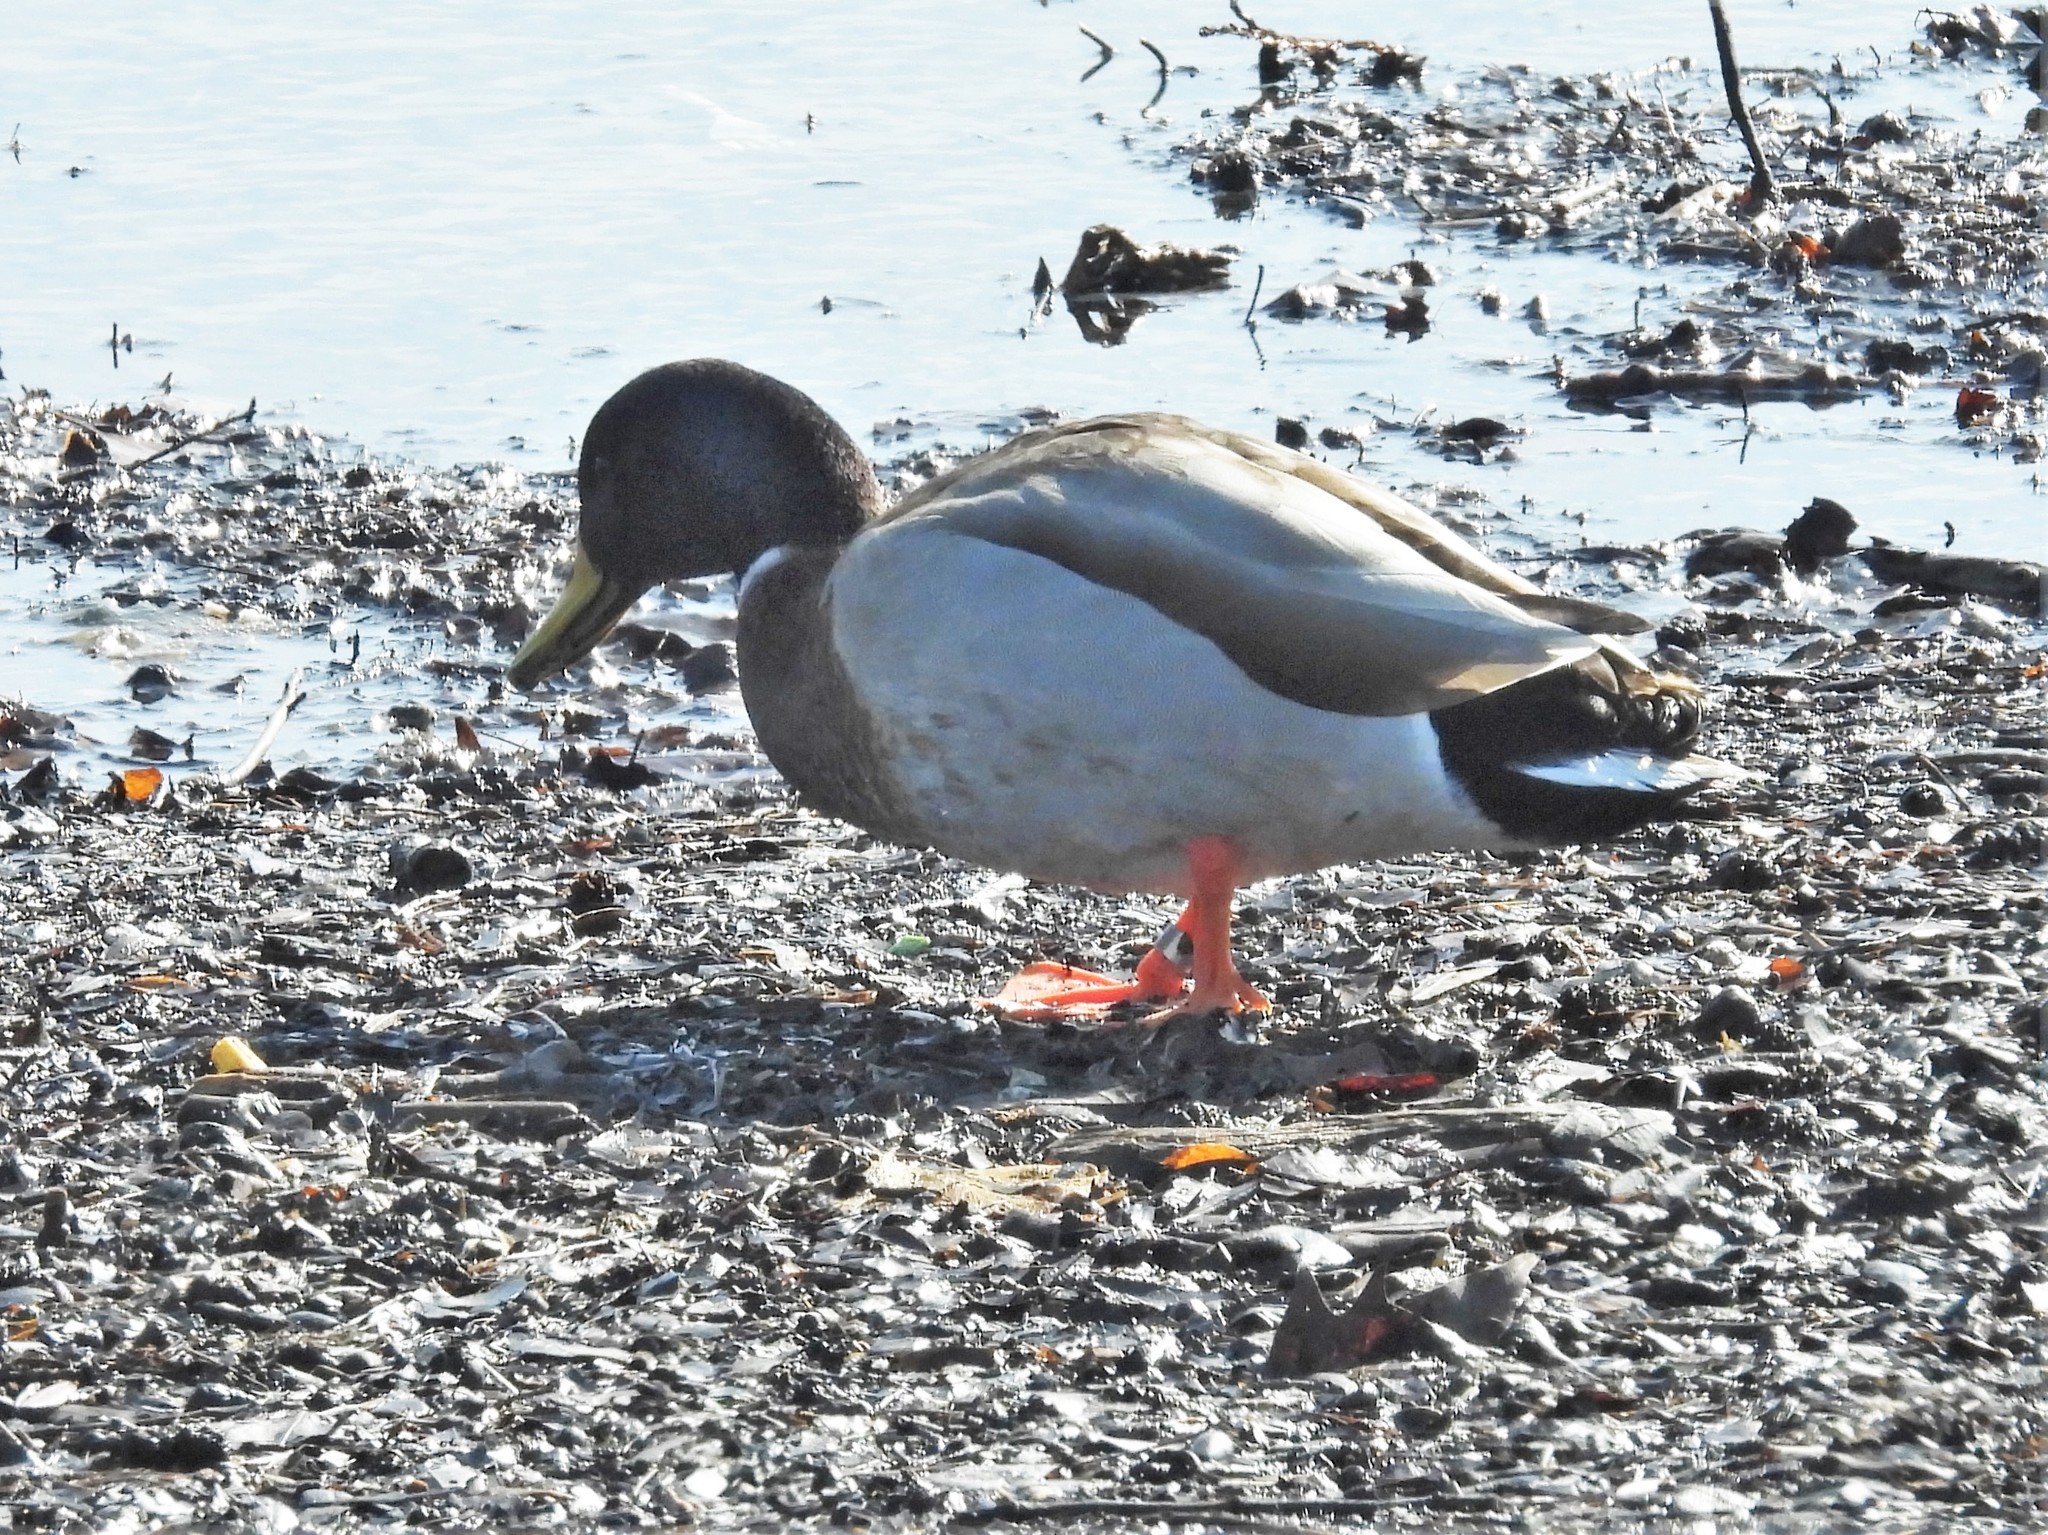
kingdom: Animalia
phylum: Chordata
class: Aves
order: Anseriformes
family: Anatidae
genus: Anas
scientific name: Anas platyrhynchos
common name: Mallard
